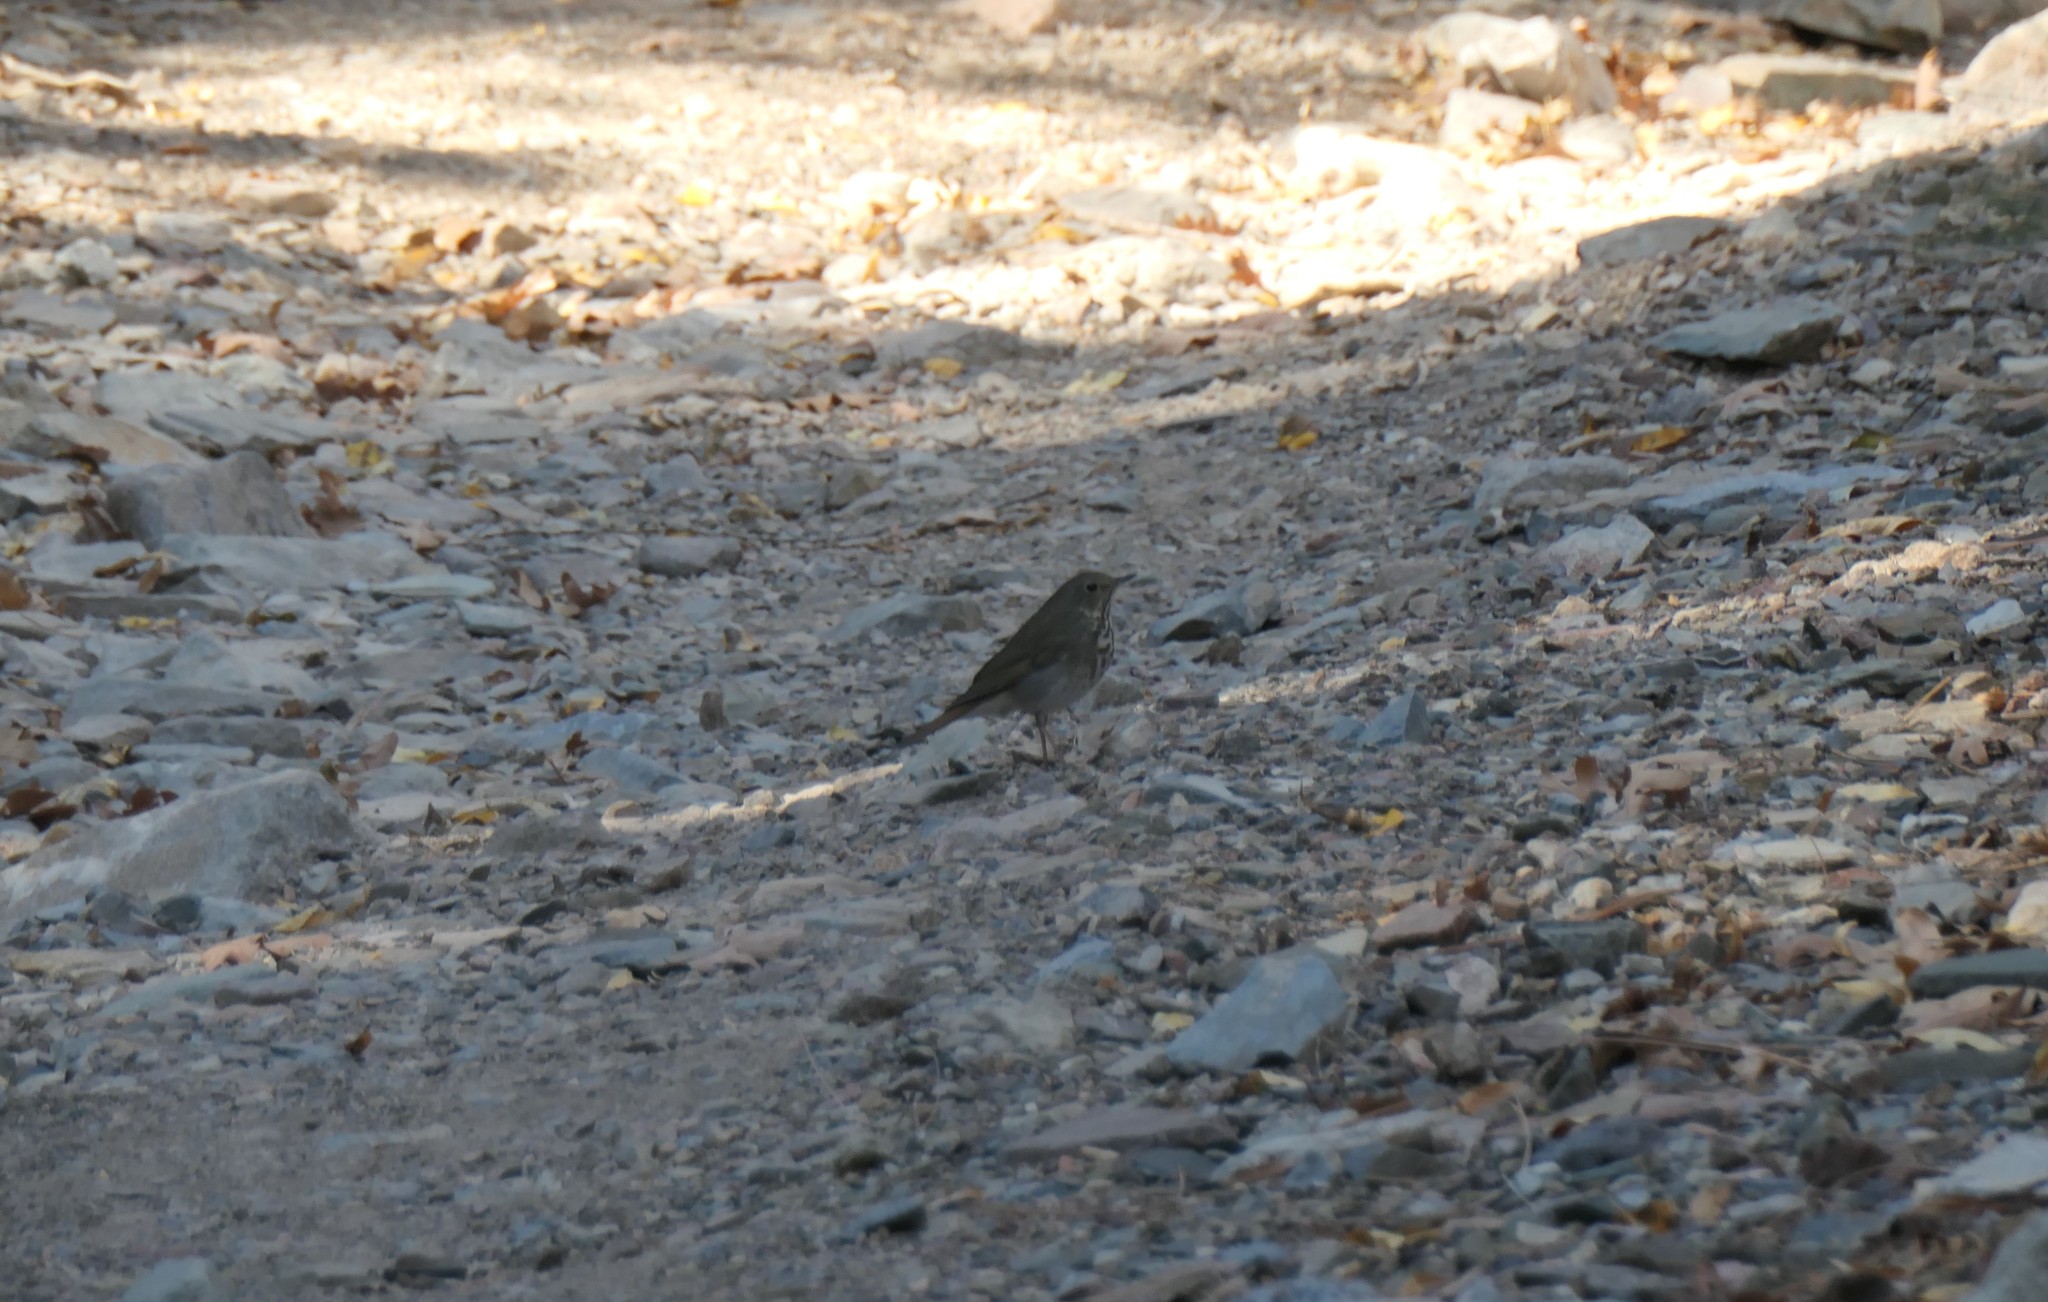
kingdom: Animalia
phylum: Chordata
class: Aves
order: Passeriformes
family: Turdidae
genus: Catharus
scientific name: Catharus guttatus
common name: Hermit thrush
